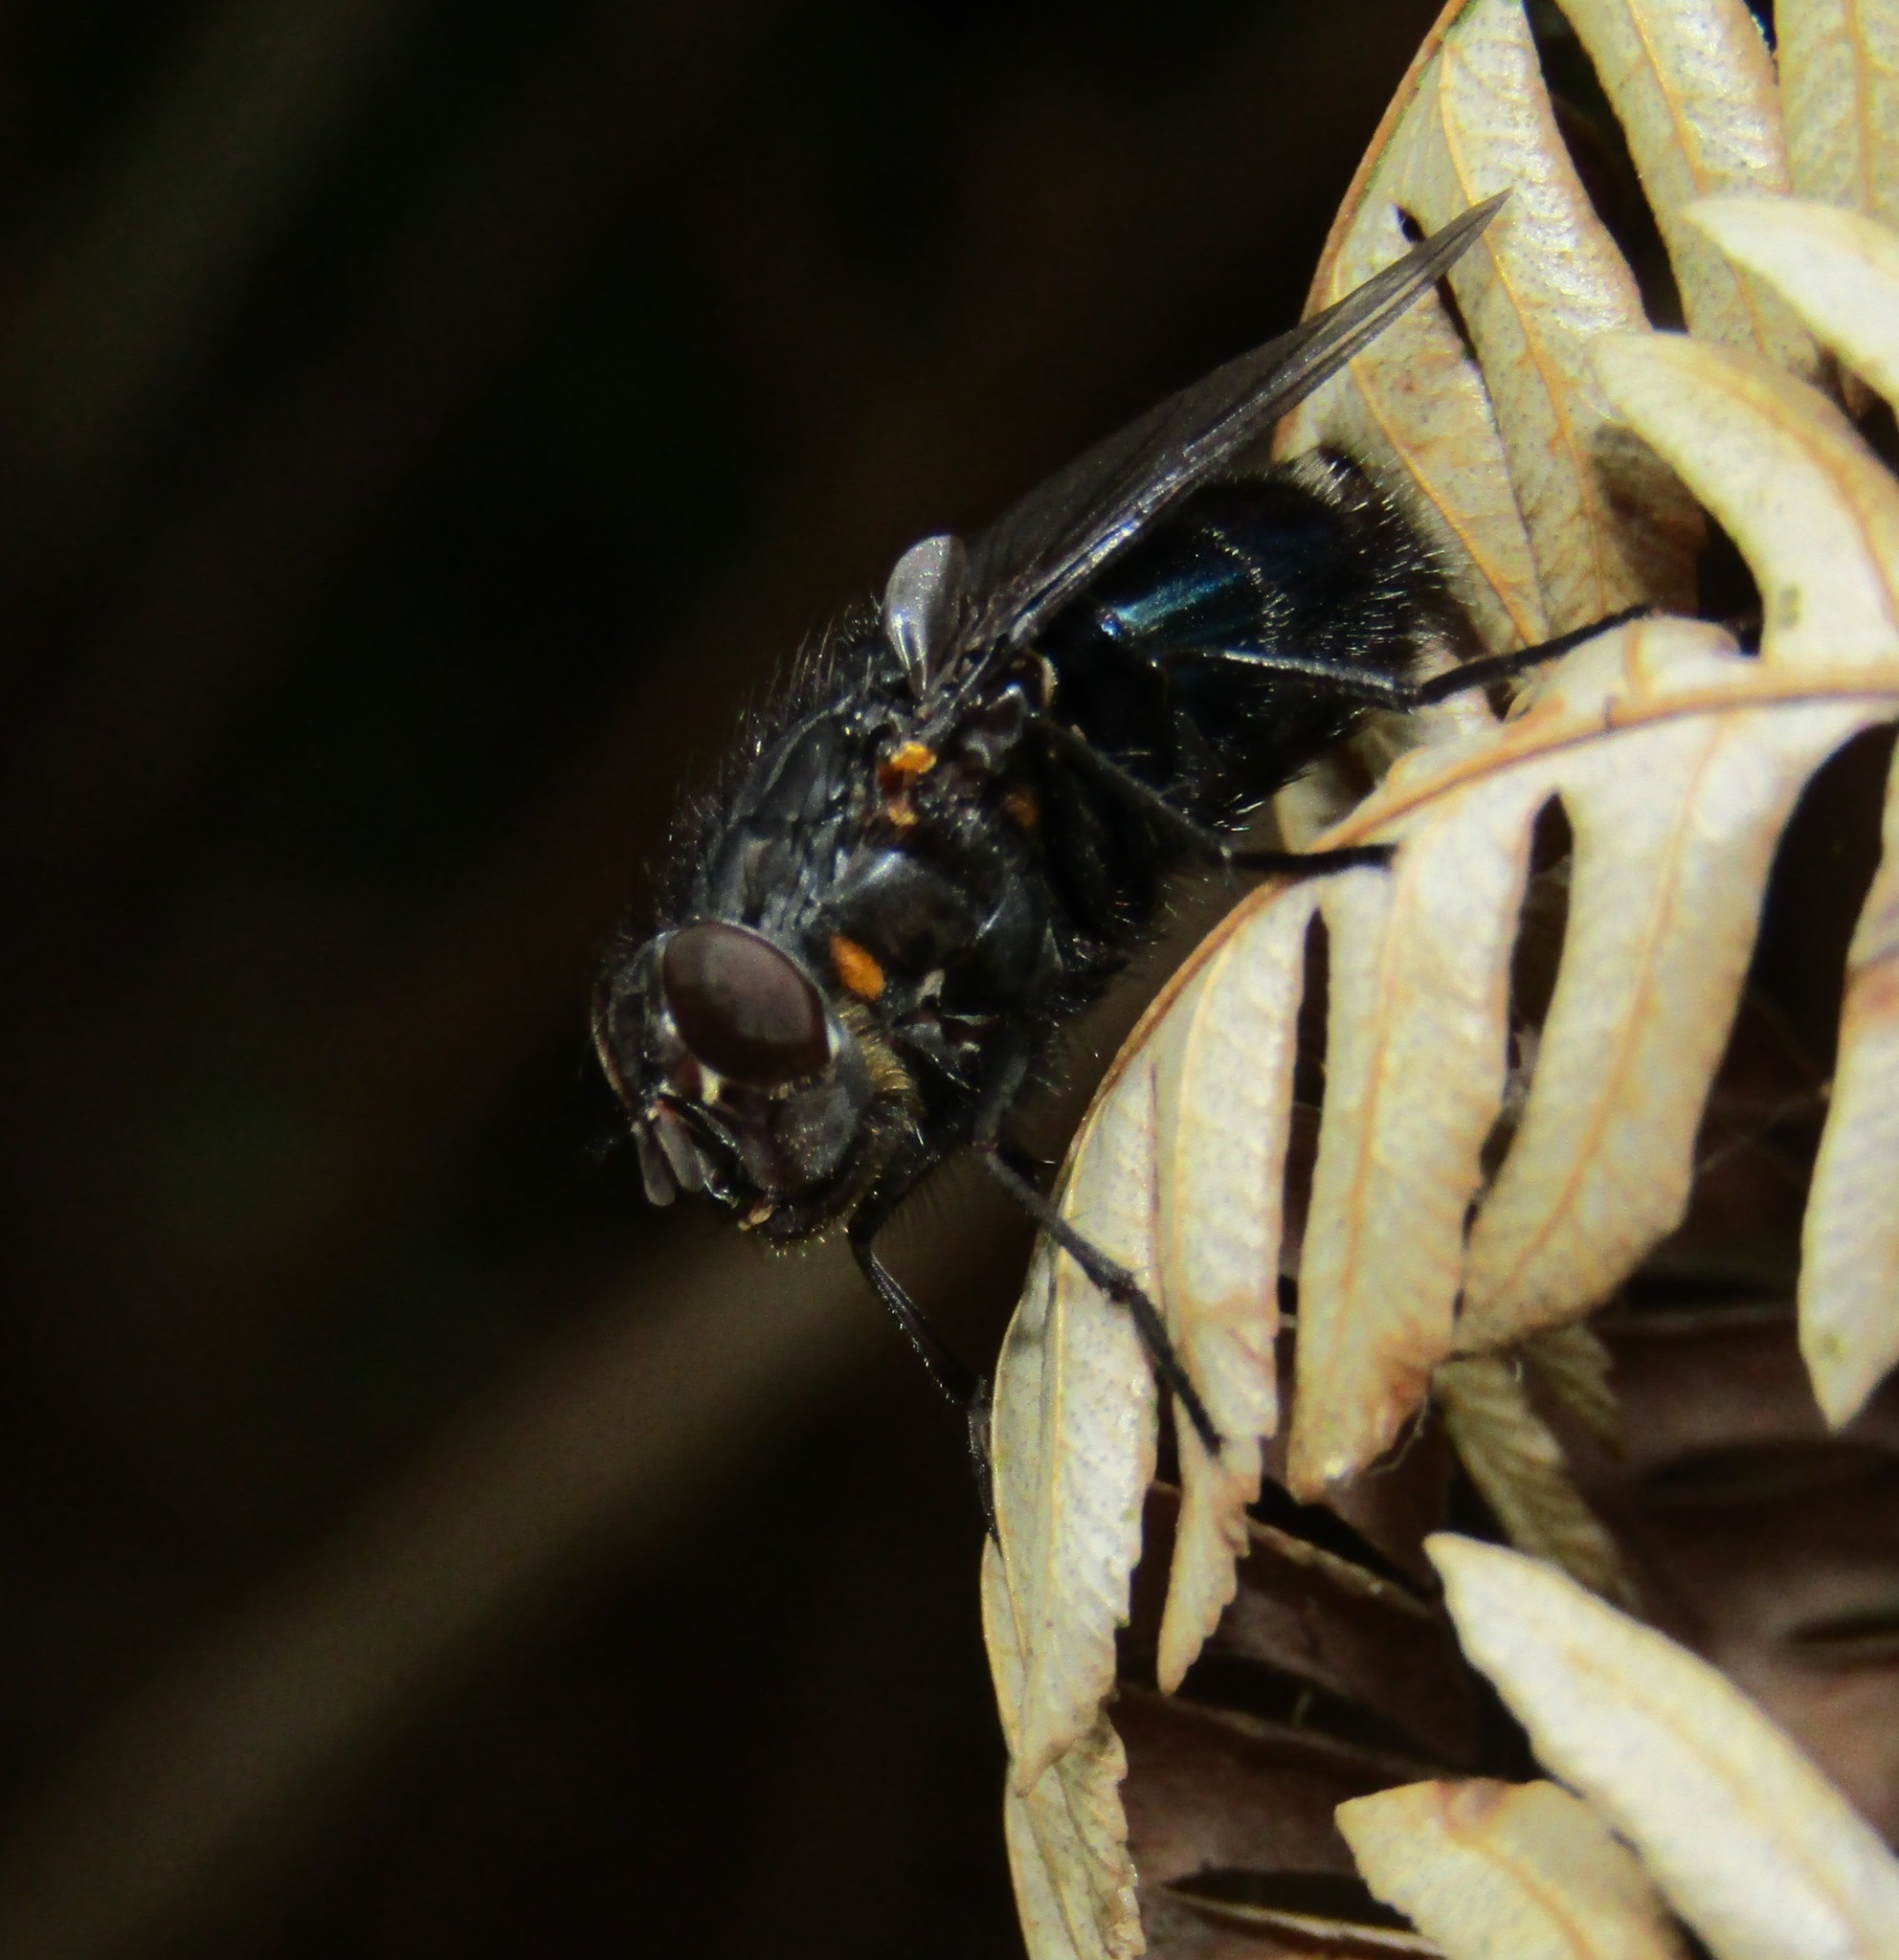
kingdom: Animalia
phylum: Arthropoda
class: Insecta
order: Diptera
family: Calliphoridae
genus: Calliphora
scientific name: Calliphora quadrimaculata
